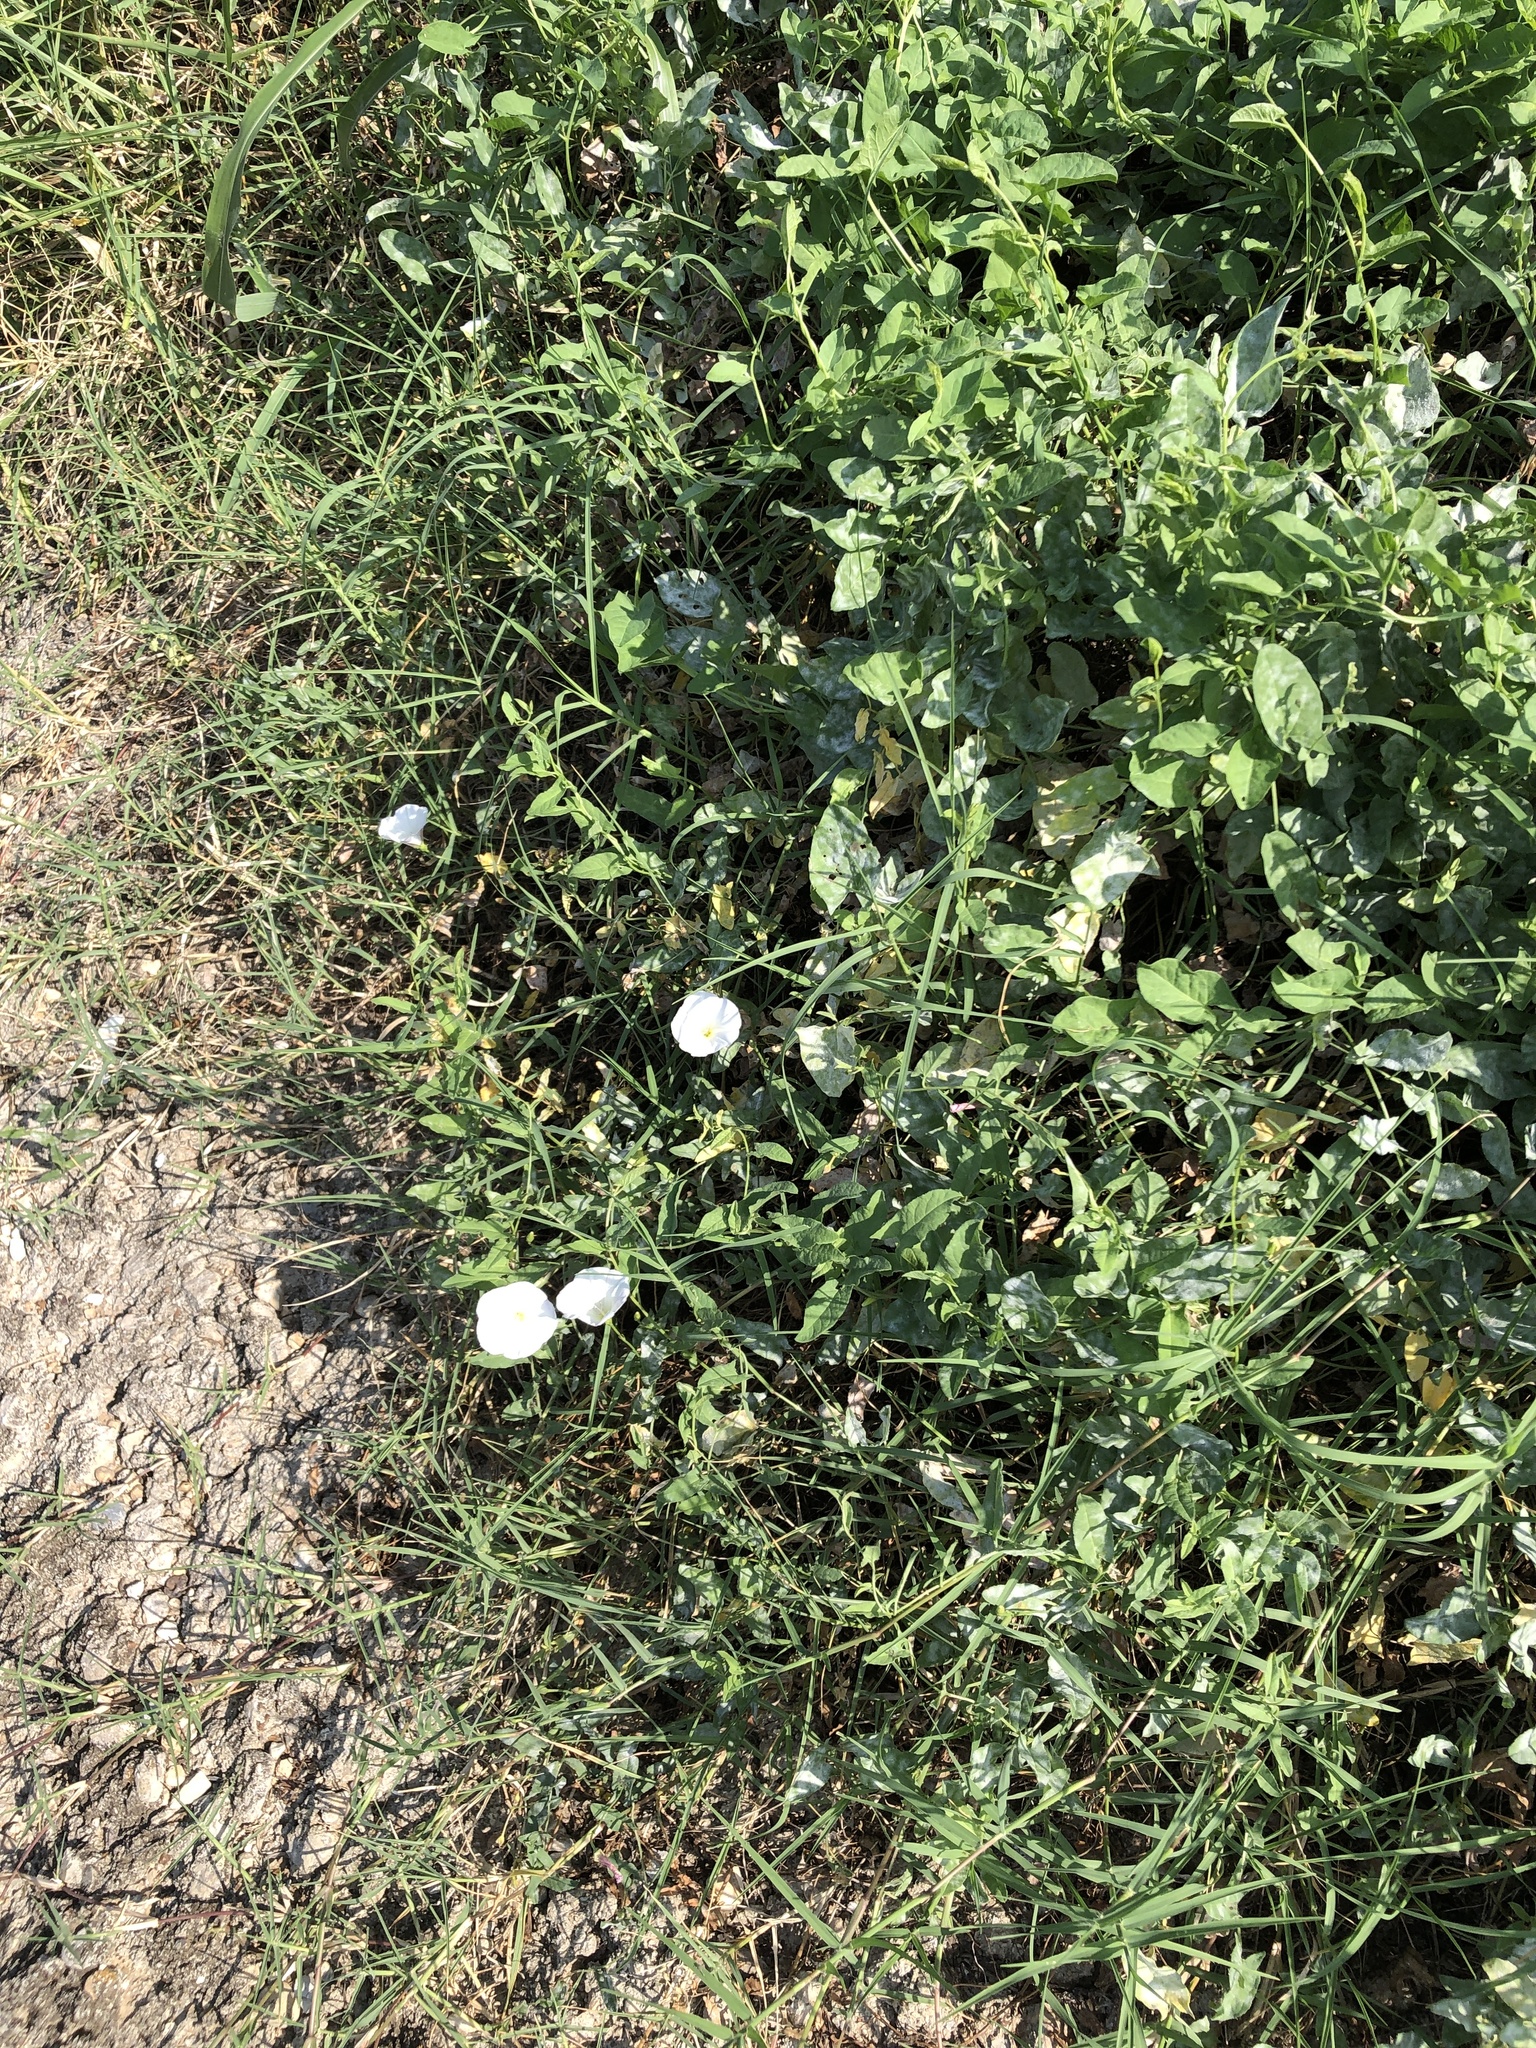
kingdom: Plantae
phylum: Tracheophyta
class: Magnoliopsida
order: Solanales
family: Convolvulaceae
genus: Convolvulus
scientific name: Convolvulus arvensis
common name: Field bindweed
